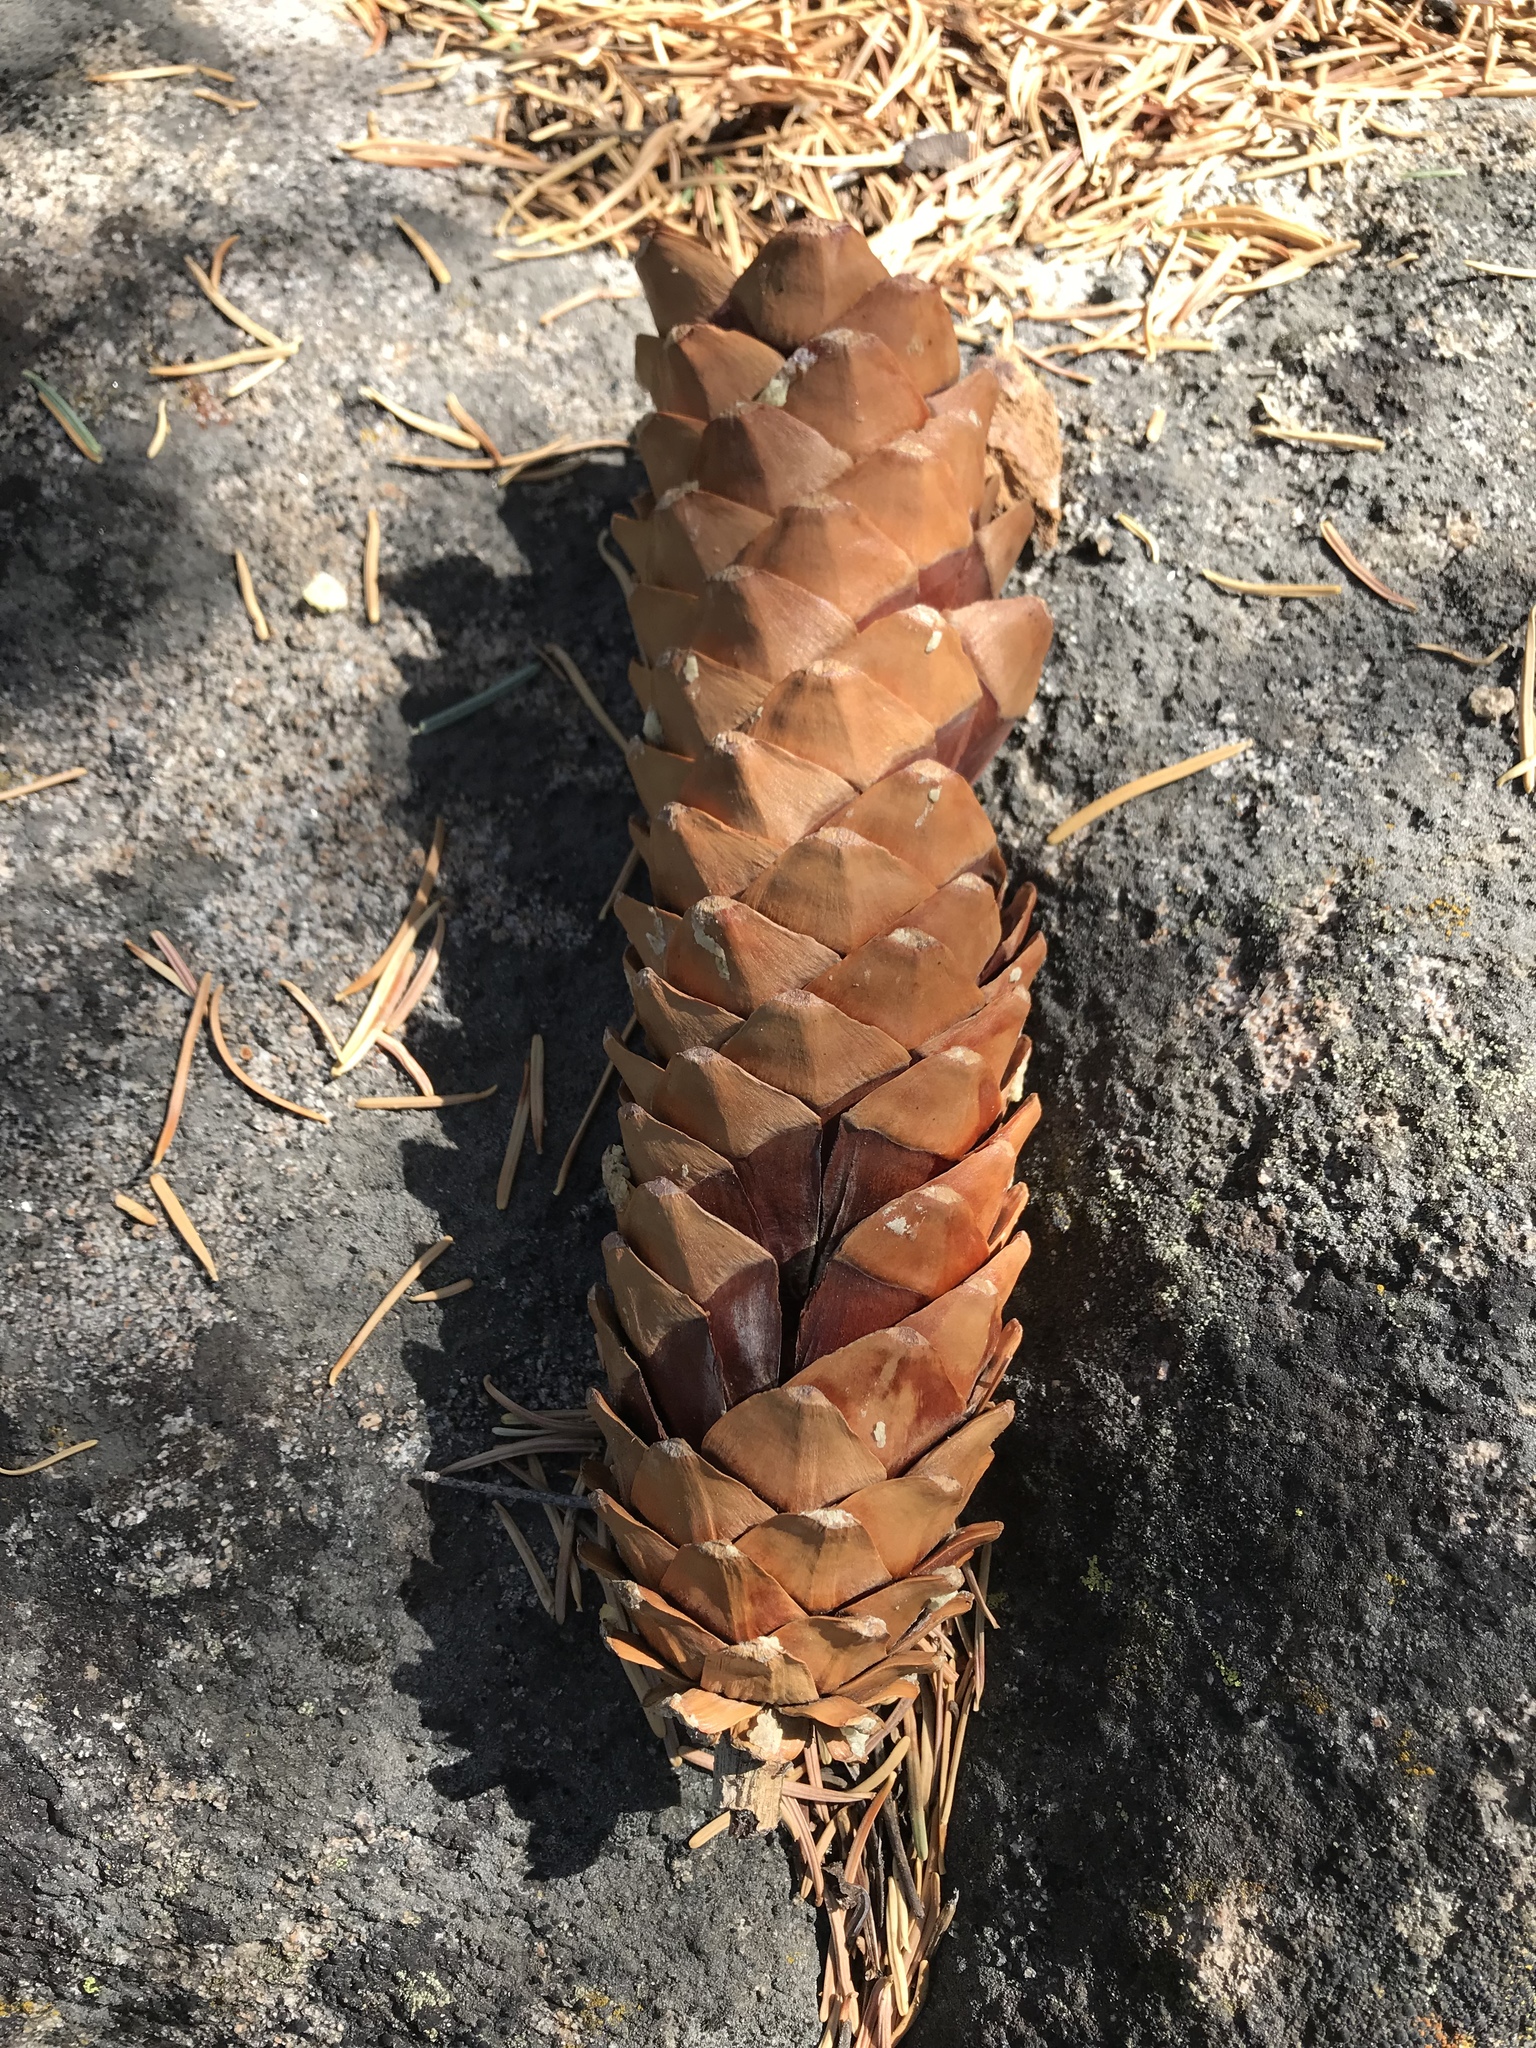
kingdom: Plantae
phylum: Tracheophyta
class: Pinopsida
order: Pinales
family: Pinaceae
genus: Pinus
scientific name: Pinus lambertiana
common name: Sugar pine
